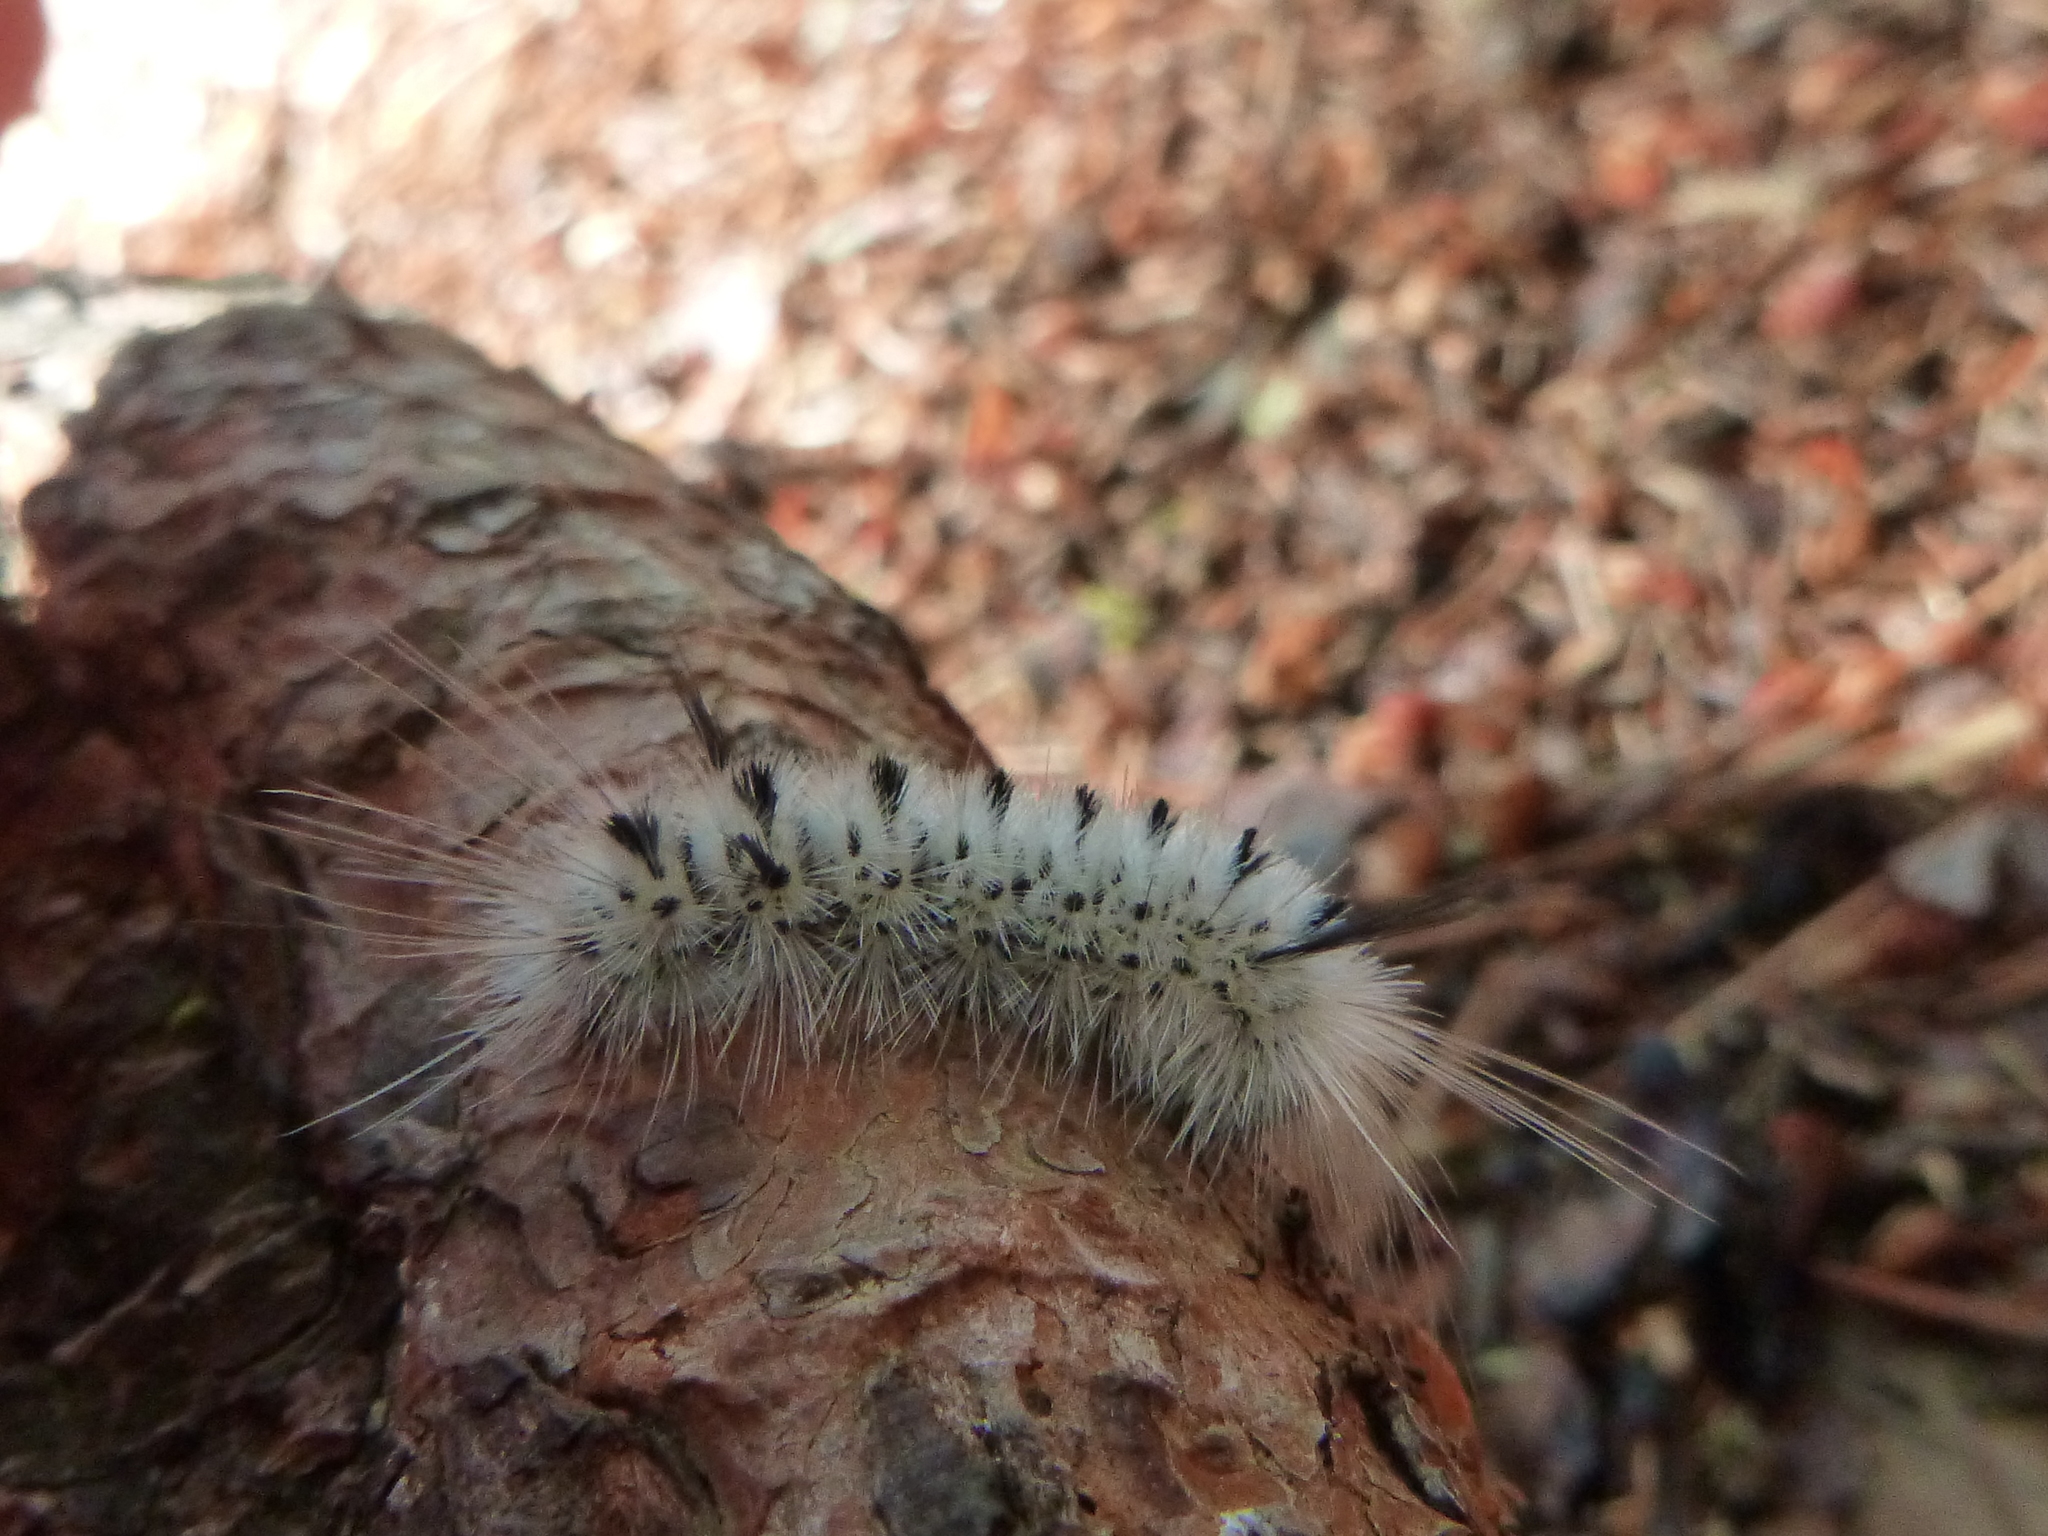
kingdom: Animalia
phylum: Arthropoda
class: Insecta
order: Lepidoptera
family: Erebidae
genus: Lophocampa
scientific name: Lophocampa caryae
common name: Hickory tussock moth
